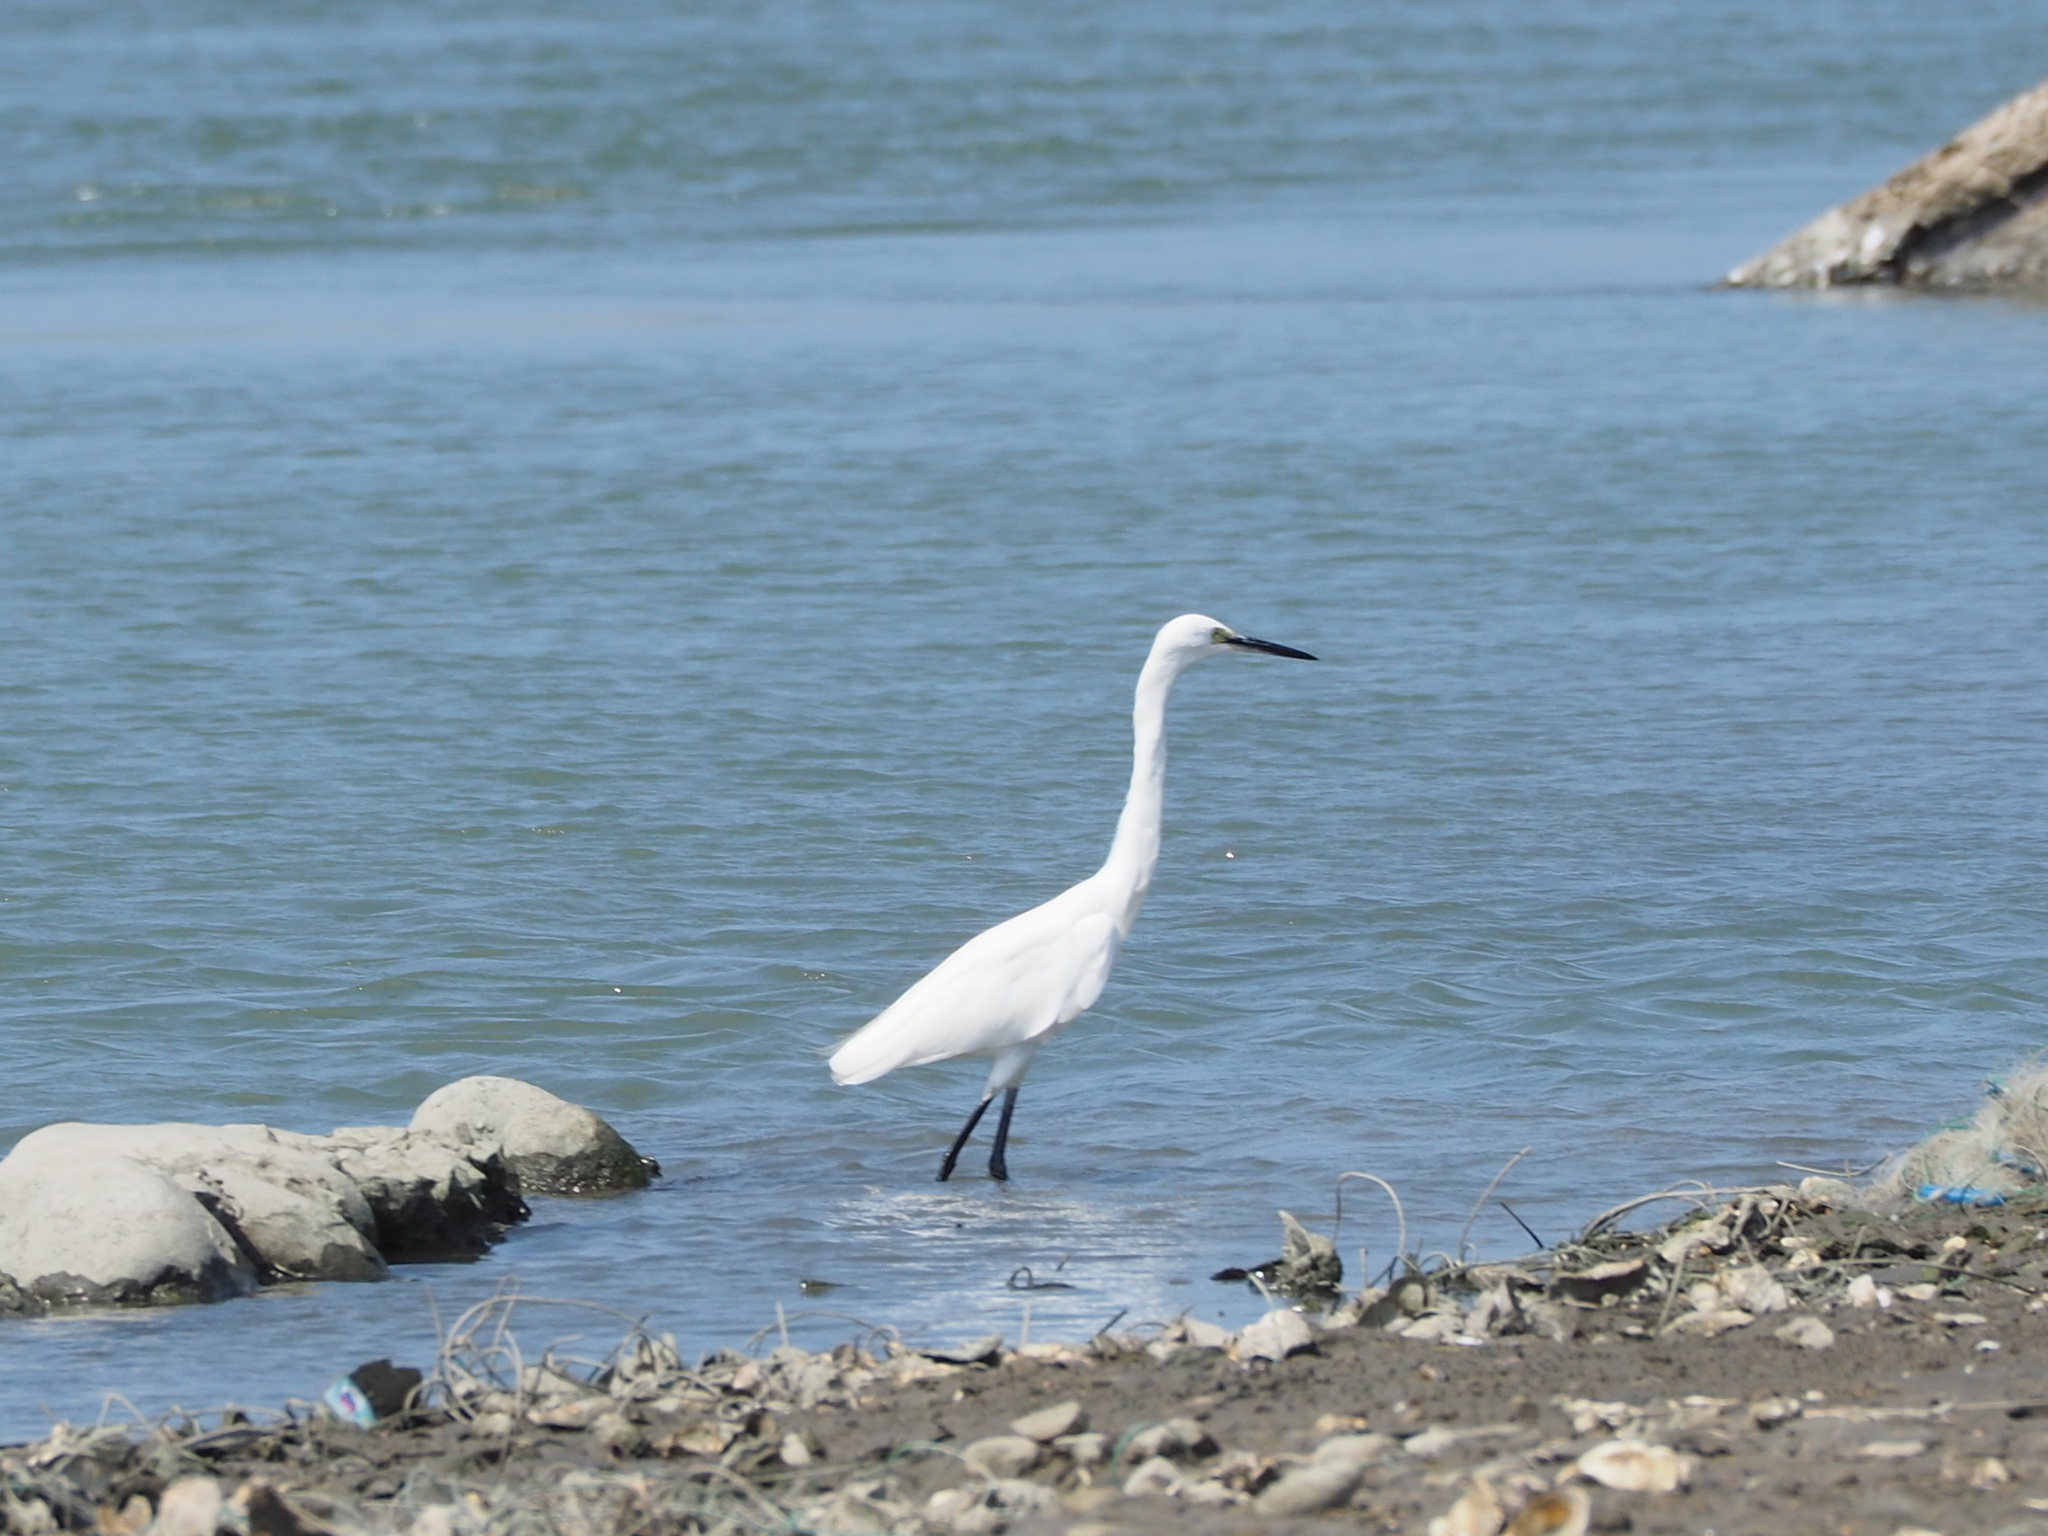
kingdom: Animalia
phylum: Chordata
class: Aves
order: Pelecaniformes
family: Ardeidae
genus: Egretta
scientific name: Egretta garzetta
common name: Little egret
